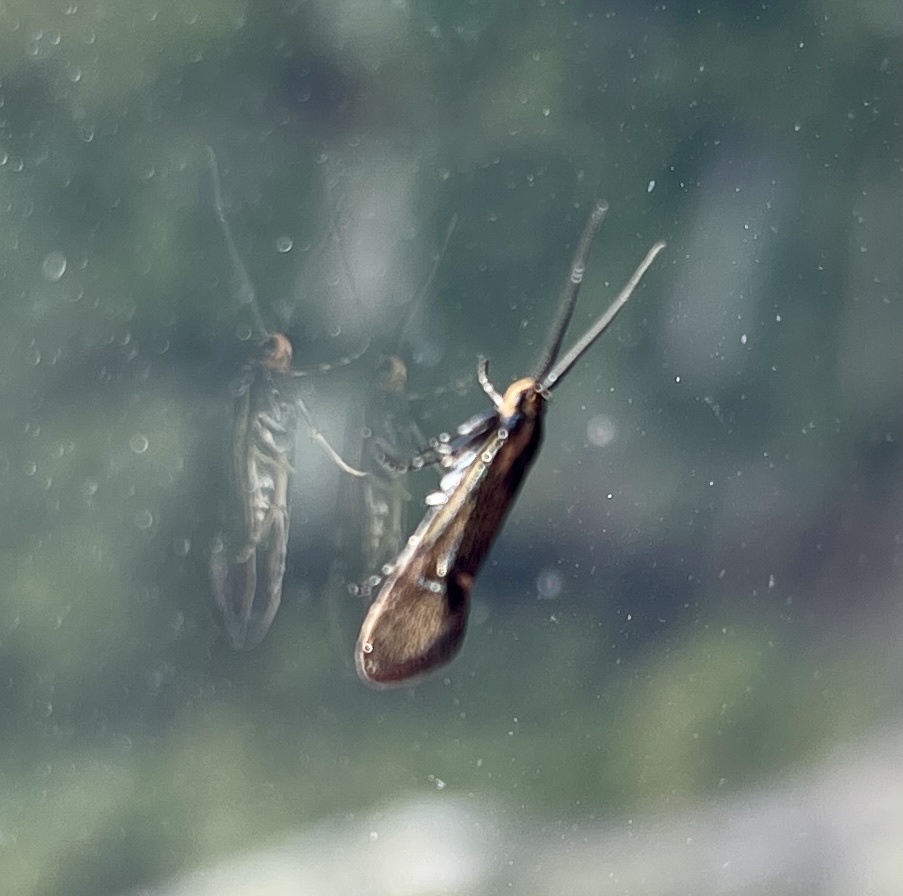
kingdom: Animalia
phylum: Arthropoda
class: Insecta
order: Lepidoptera
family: Oecophoridae
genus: Dafa
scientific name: Dafa Esperia sulphurella
